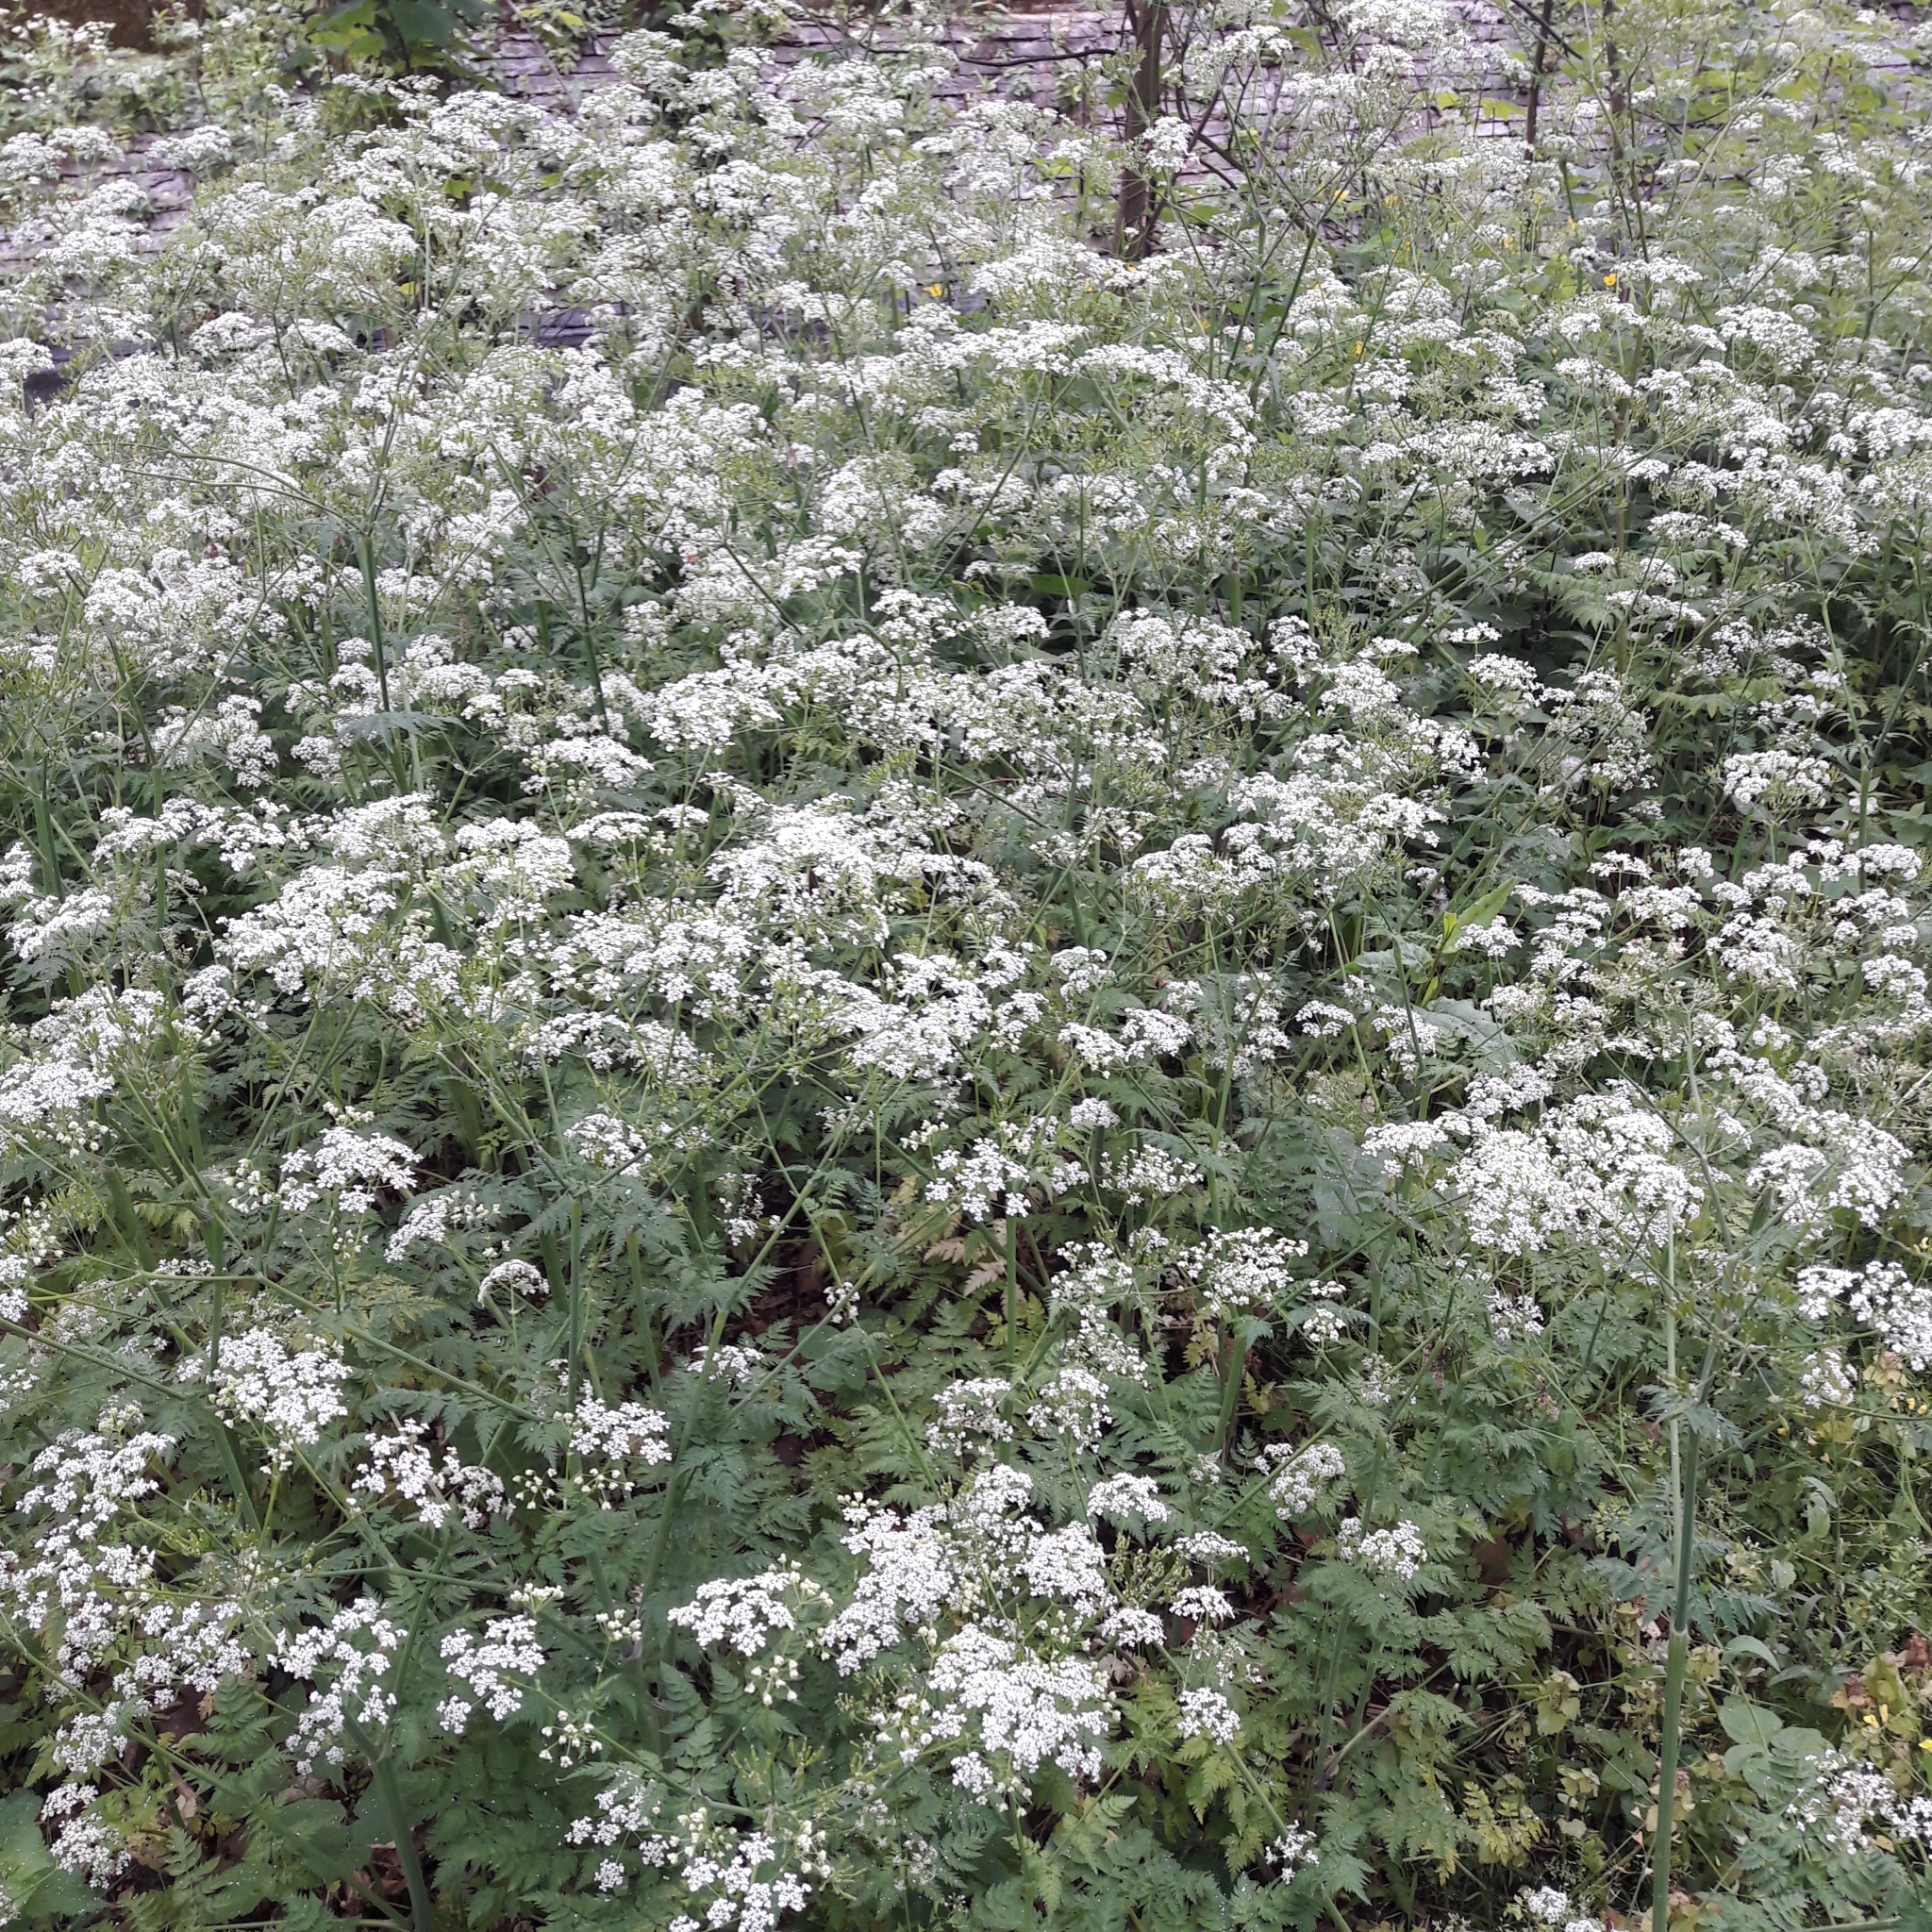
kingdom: Plantae
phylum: Tracheophyta
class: Magnoliopsida
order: Apiales
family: Apiaceae
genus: Anthriscus
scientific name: Anthriscus sylvestris
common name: Cow parsley
